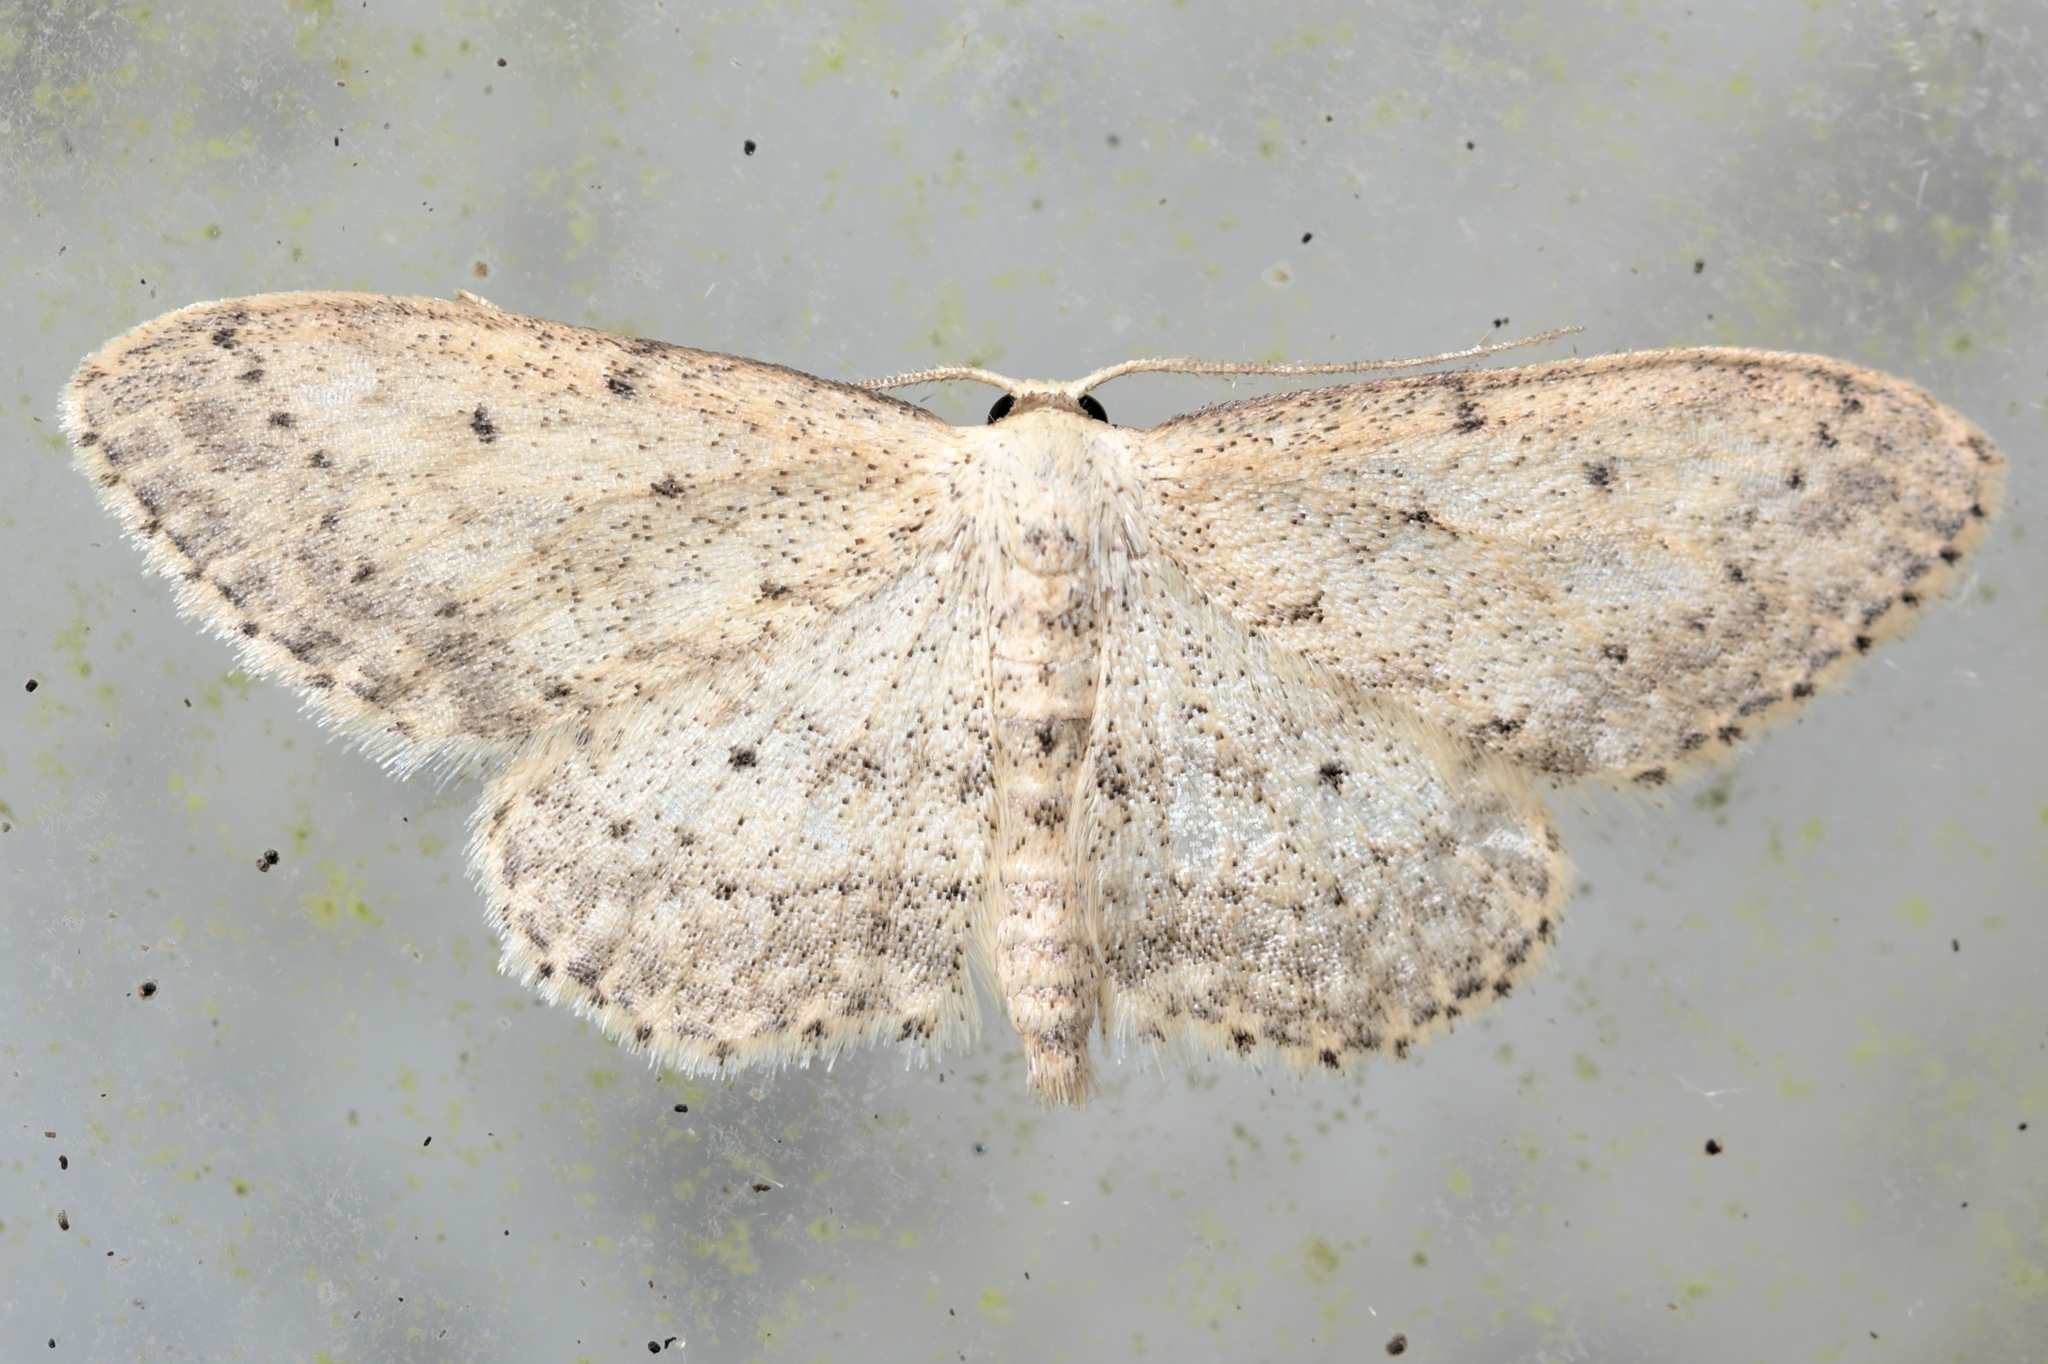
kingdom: Animalia
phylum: Arthropoda
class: Insecta
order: Lepidoptera
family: Geometridae
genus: Idaea
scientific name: Idaea seriata
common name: Small dusty wave
